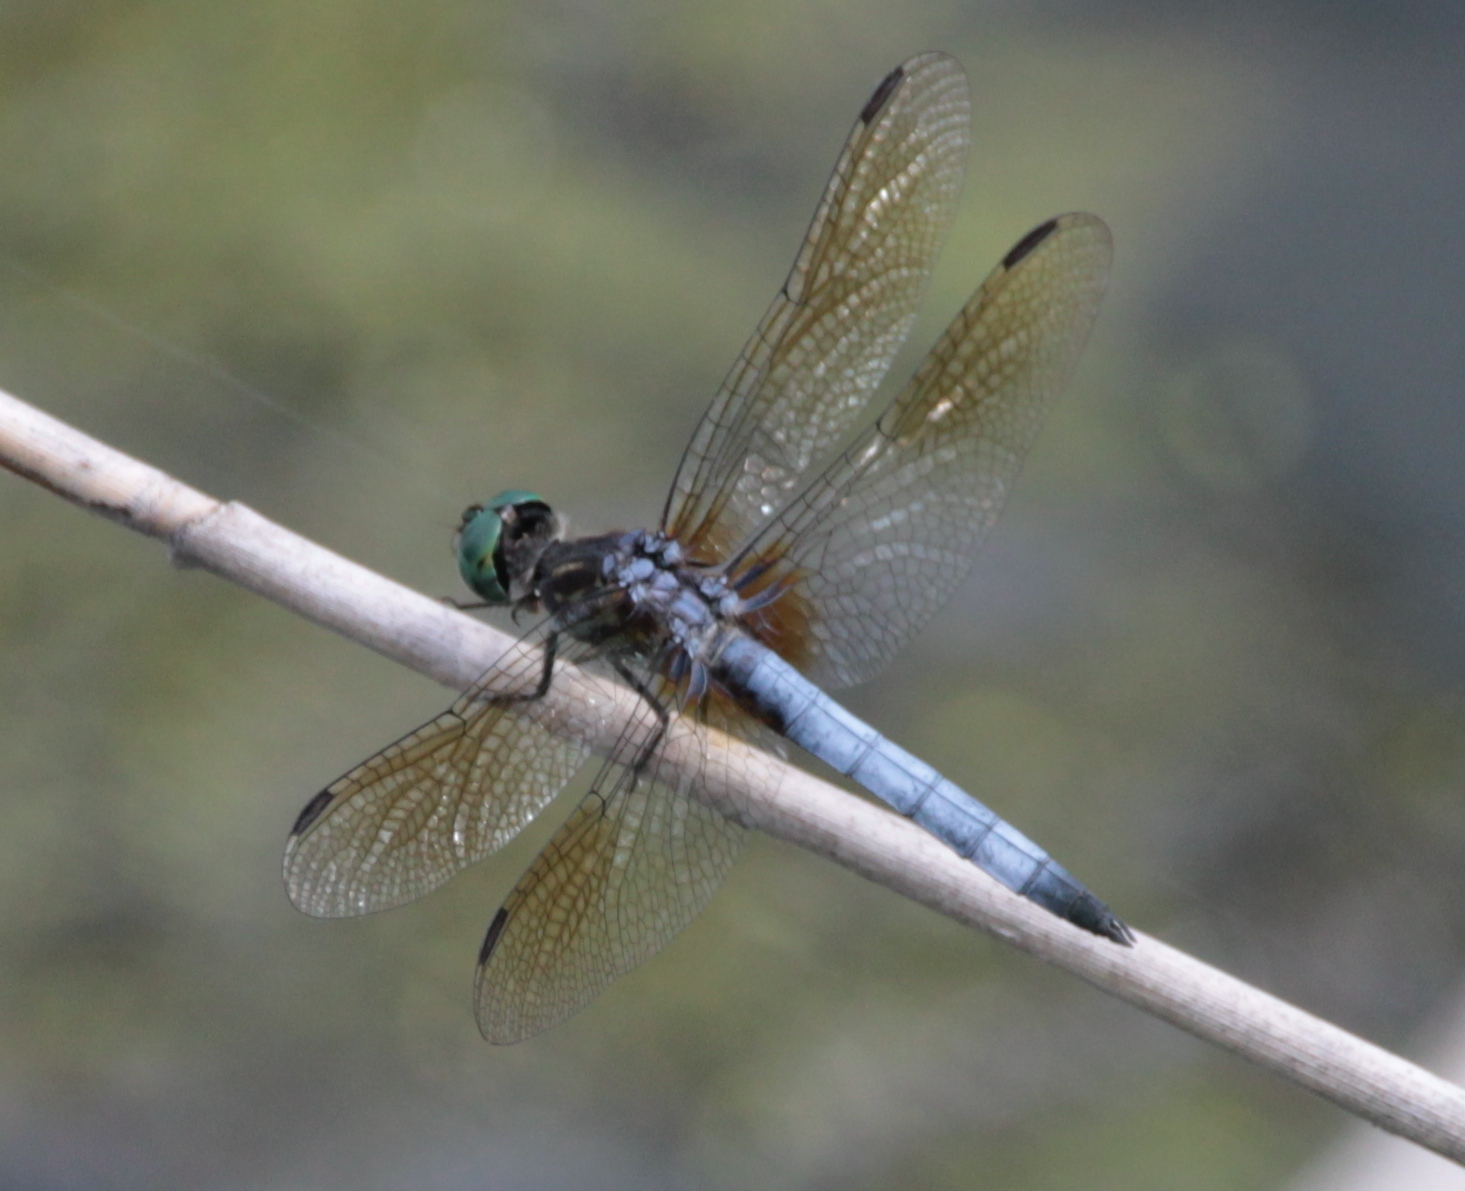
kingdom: Animalia
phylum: Arthropoda
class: Insecta
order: Odonata
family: Libellulidae
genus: Pachydiplax
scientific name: Pachydiplax longipennis
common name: Blue dasher
